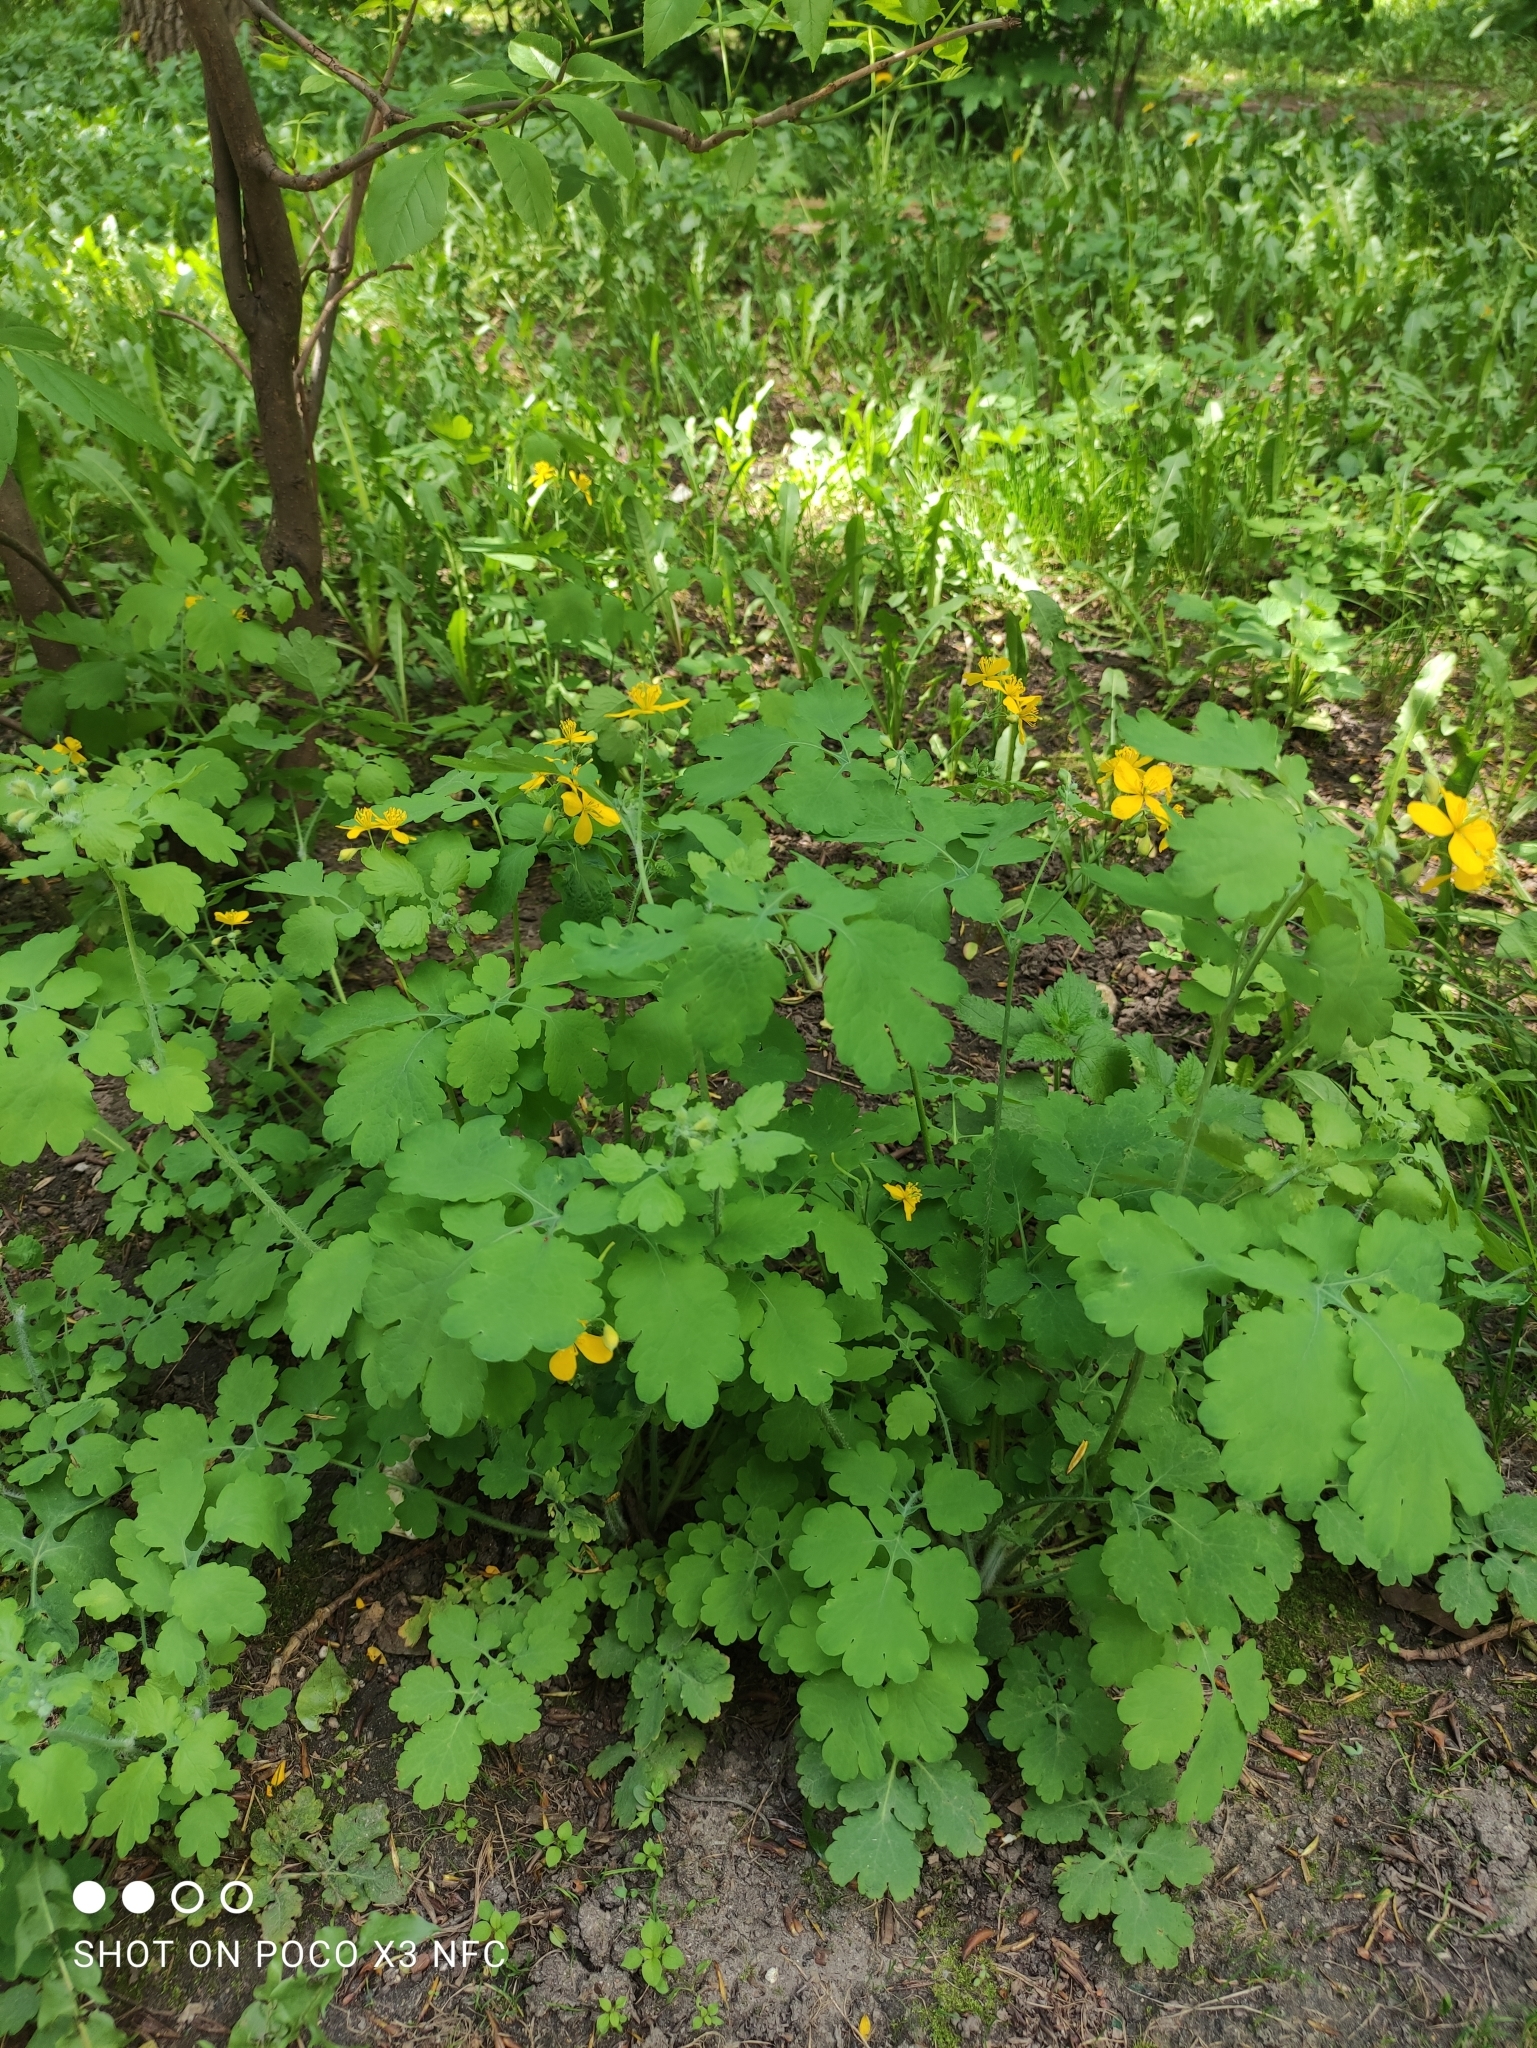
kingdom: Plantae
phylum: Tracheophyta
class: Magnoliopsida
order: Ranunculales
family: Papaveraceae
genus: Chelidonium
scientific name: Chelidonium majus
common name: Greater celandine
